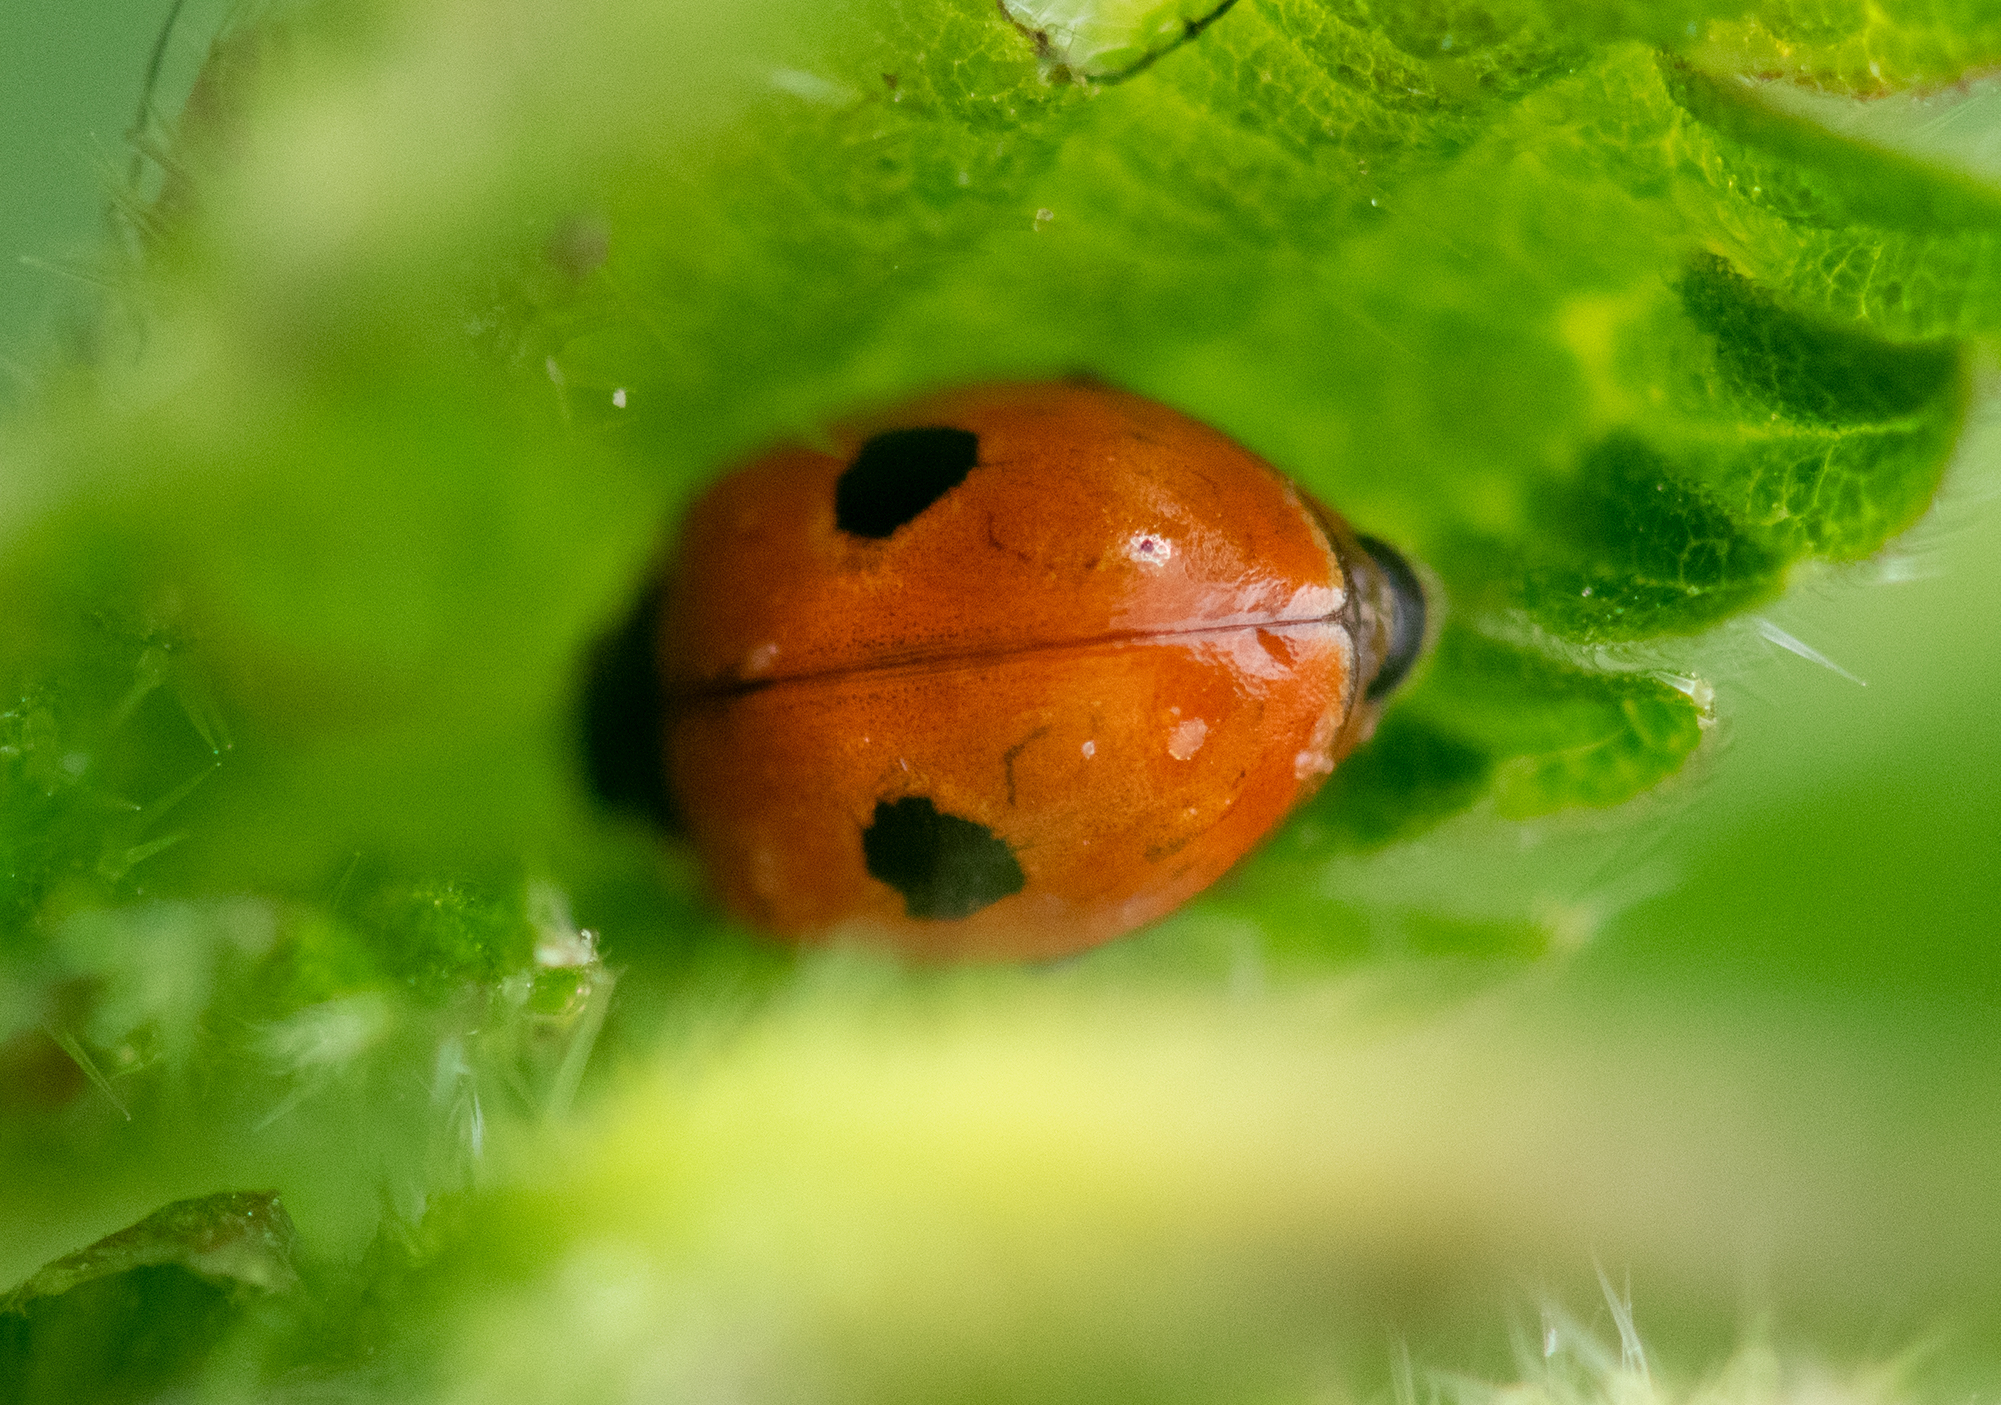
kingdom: Animalia
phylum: Arthropoda
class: Insecta
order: Coleoptera
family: Coccinellidae
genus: Adalia
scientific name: Adalia bipunctata
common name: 2-spot ladybird
